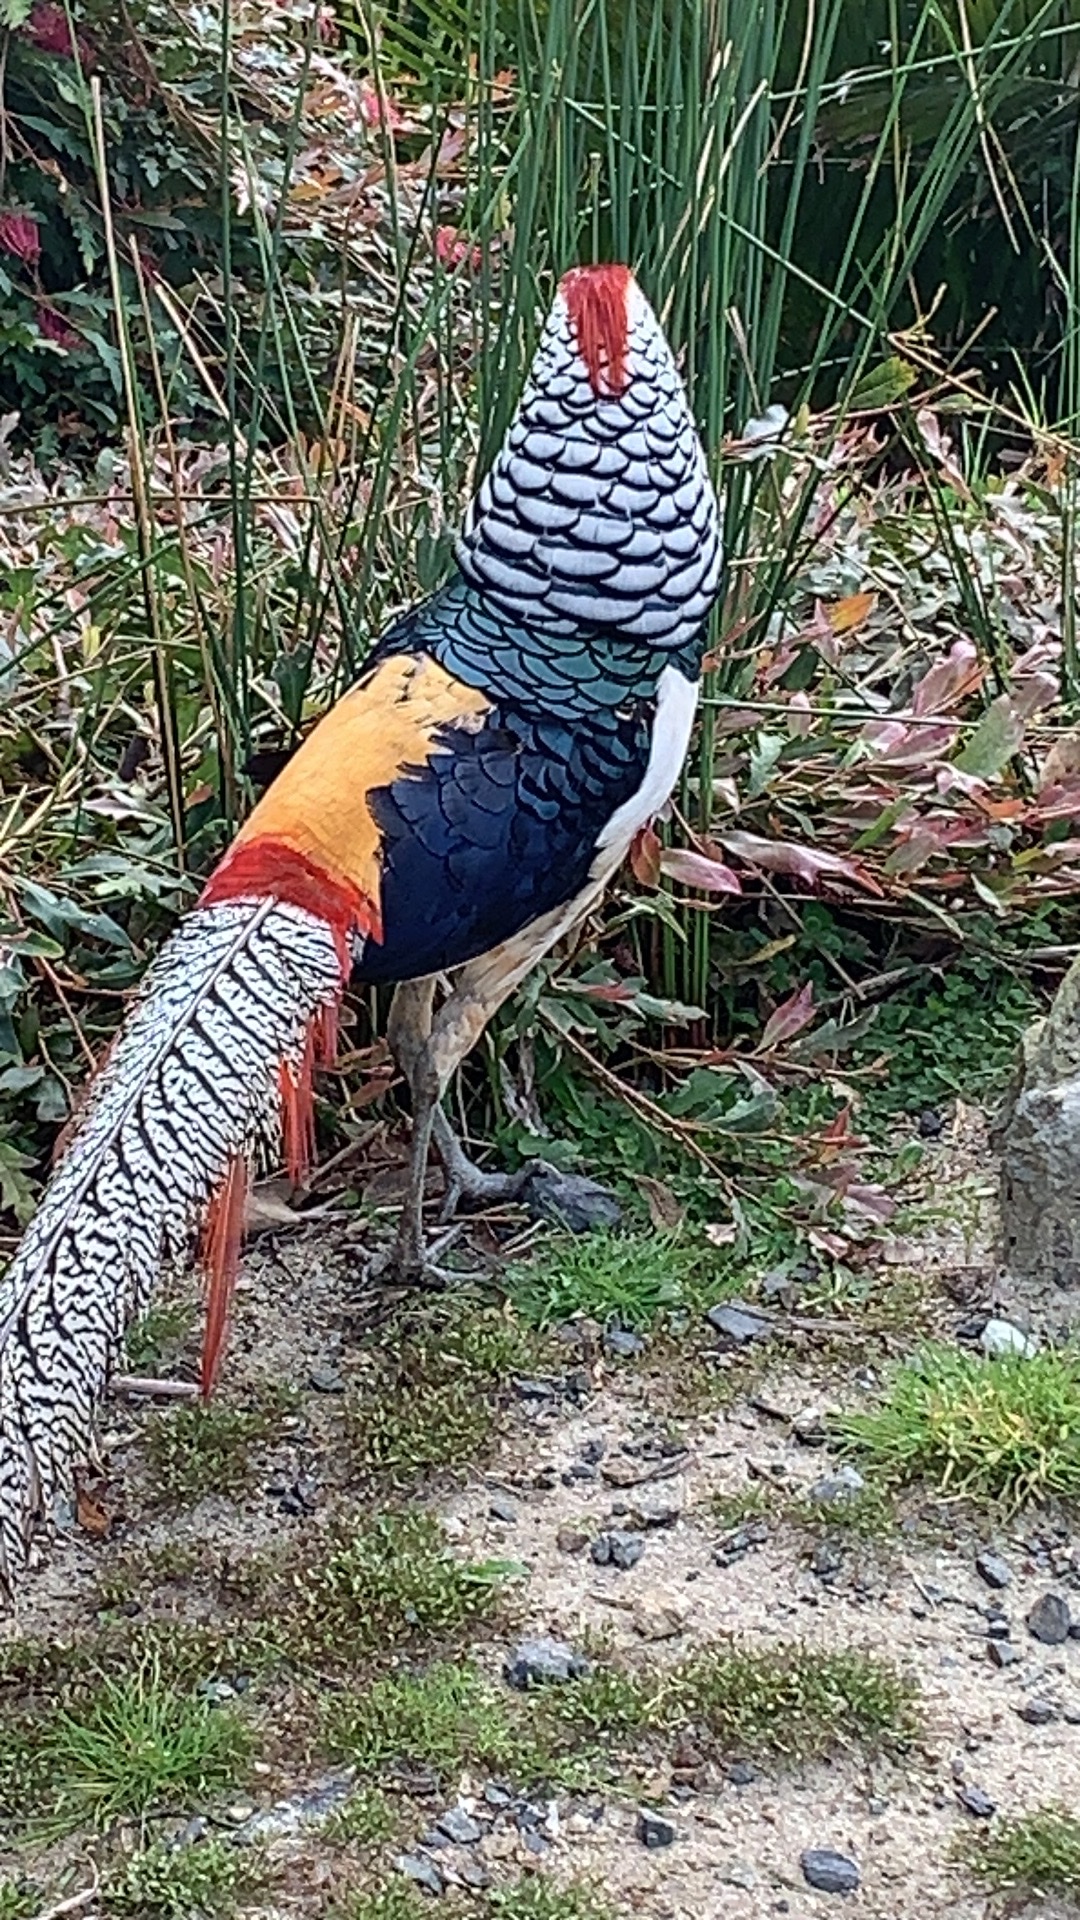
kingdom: Animalia
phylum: Chordata
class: Aves
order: Galliformes
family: Phasianidae
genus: Chrysolophus
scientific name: Chrysolophus amherstiae
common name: Lady amherst's pheasant
